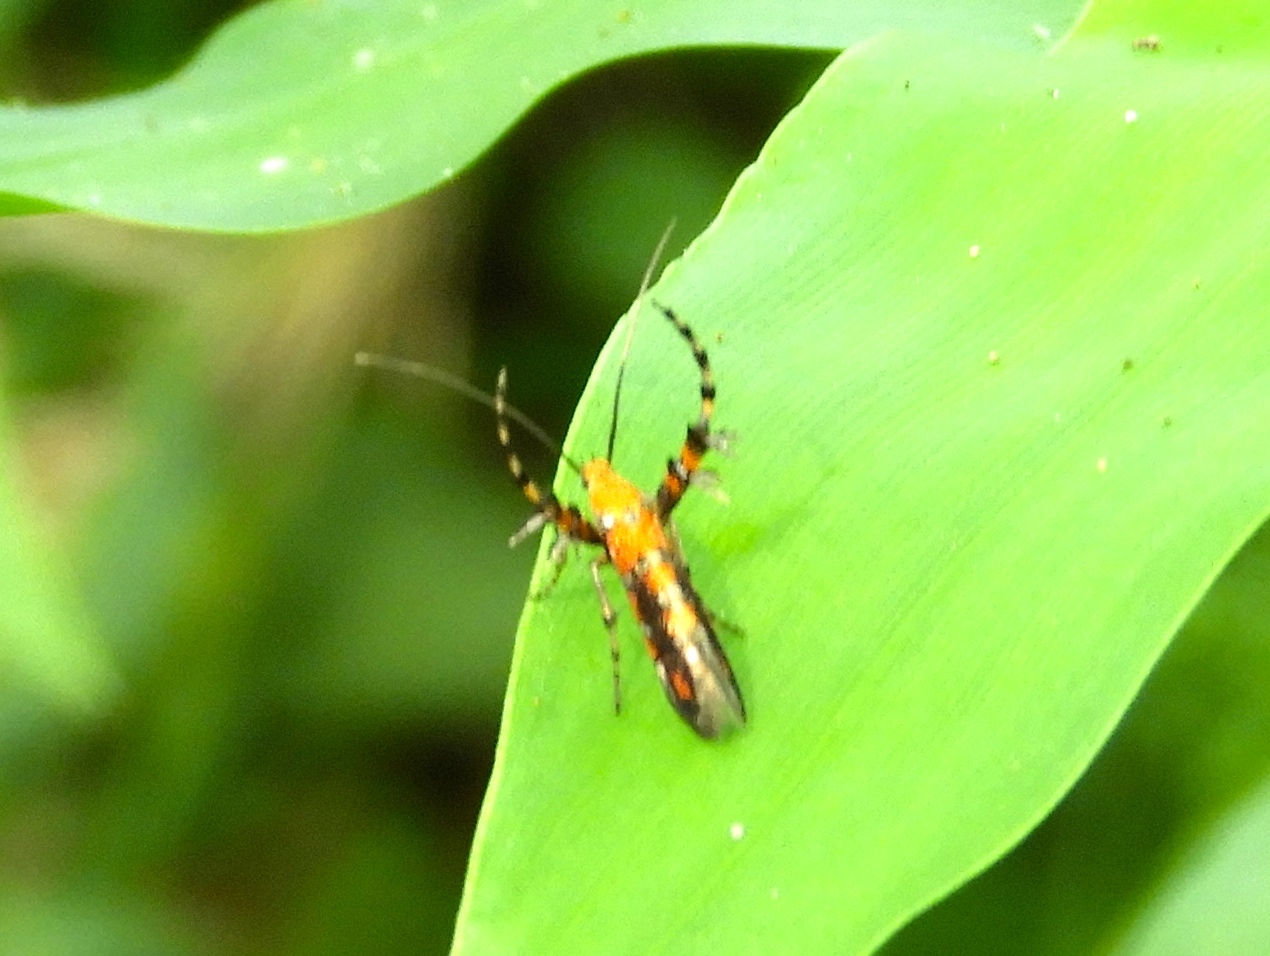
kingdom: Animalia
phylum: Arthropoda
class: Insecta
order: Lepidoptera
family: Heliodinidae
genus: Heliodines
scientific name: Heliodines
